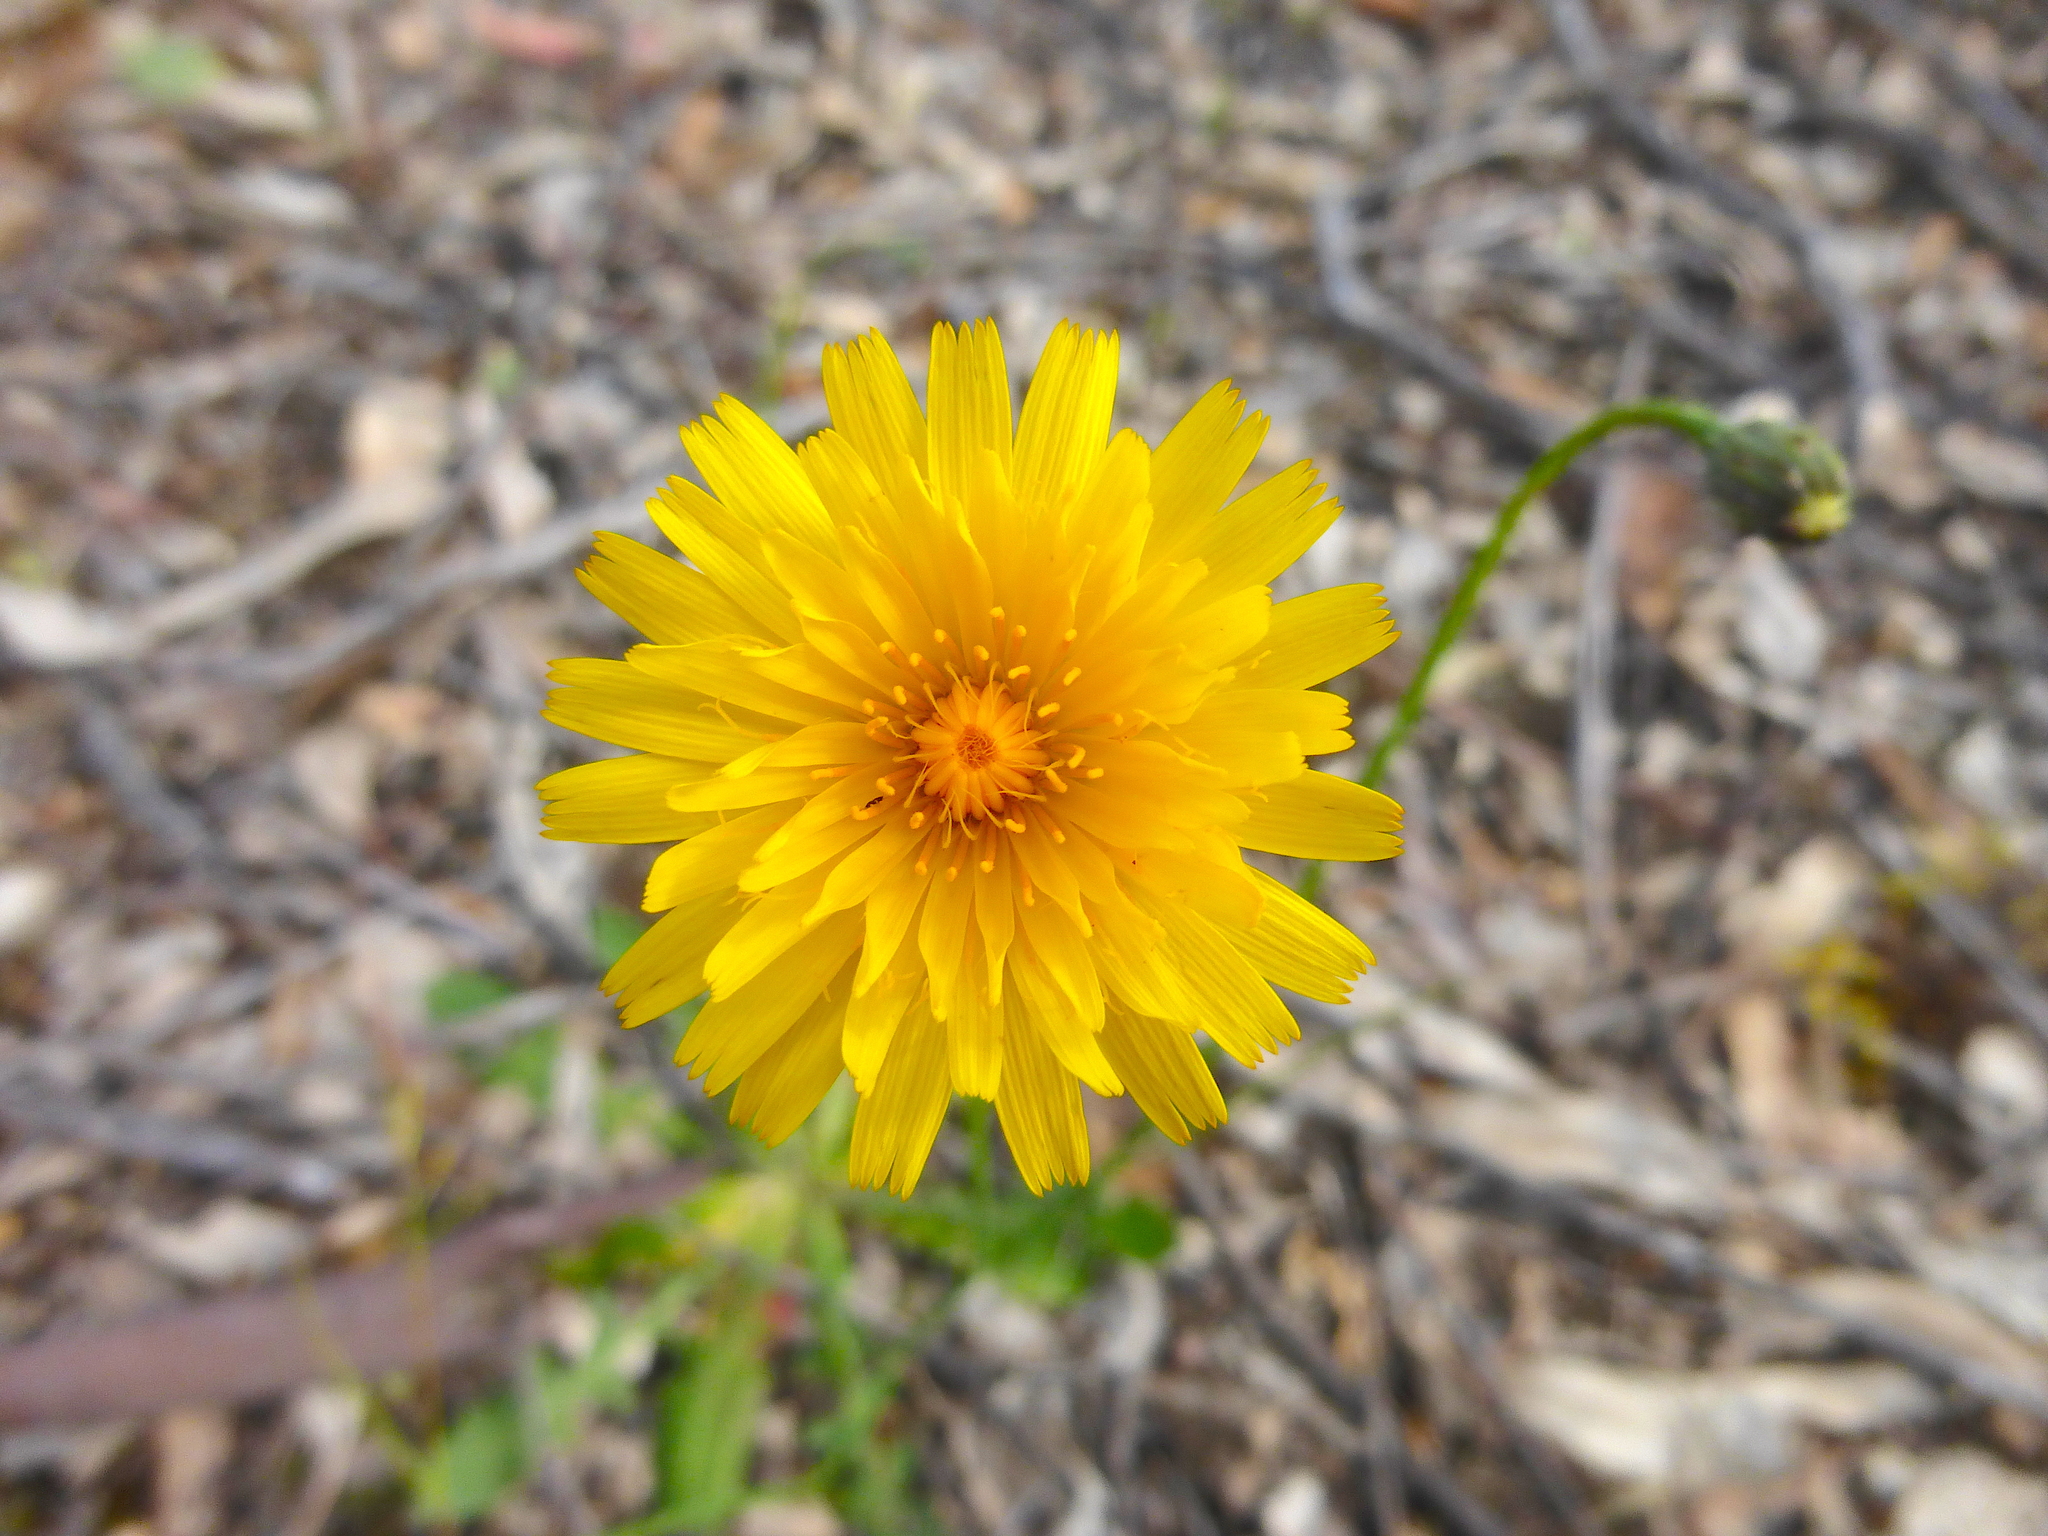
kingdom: Plantae
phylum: Tracheophyta
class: Magnoliopsida
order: Asterales
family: Asteraceae
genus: Hypochaeris
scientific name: Hypochaeris radicata
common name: Flatweed
